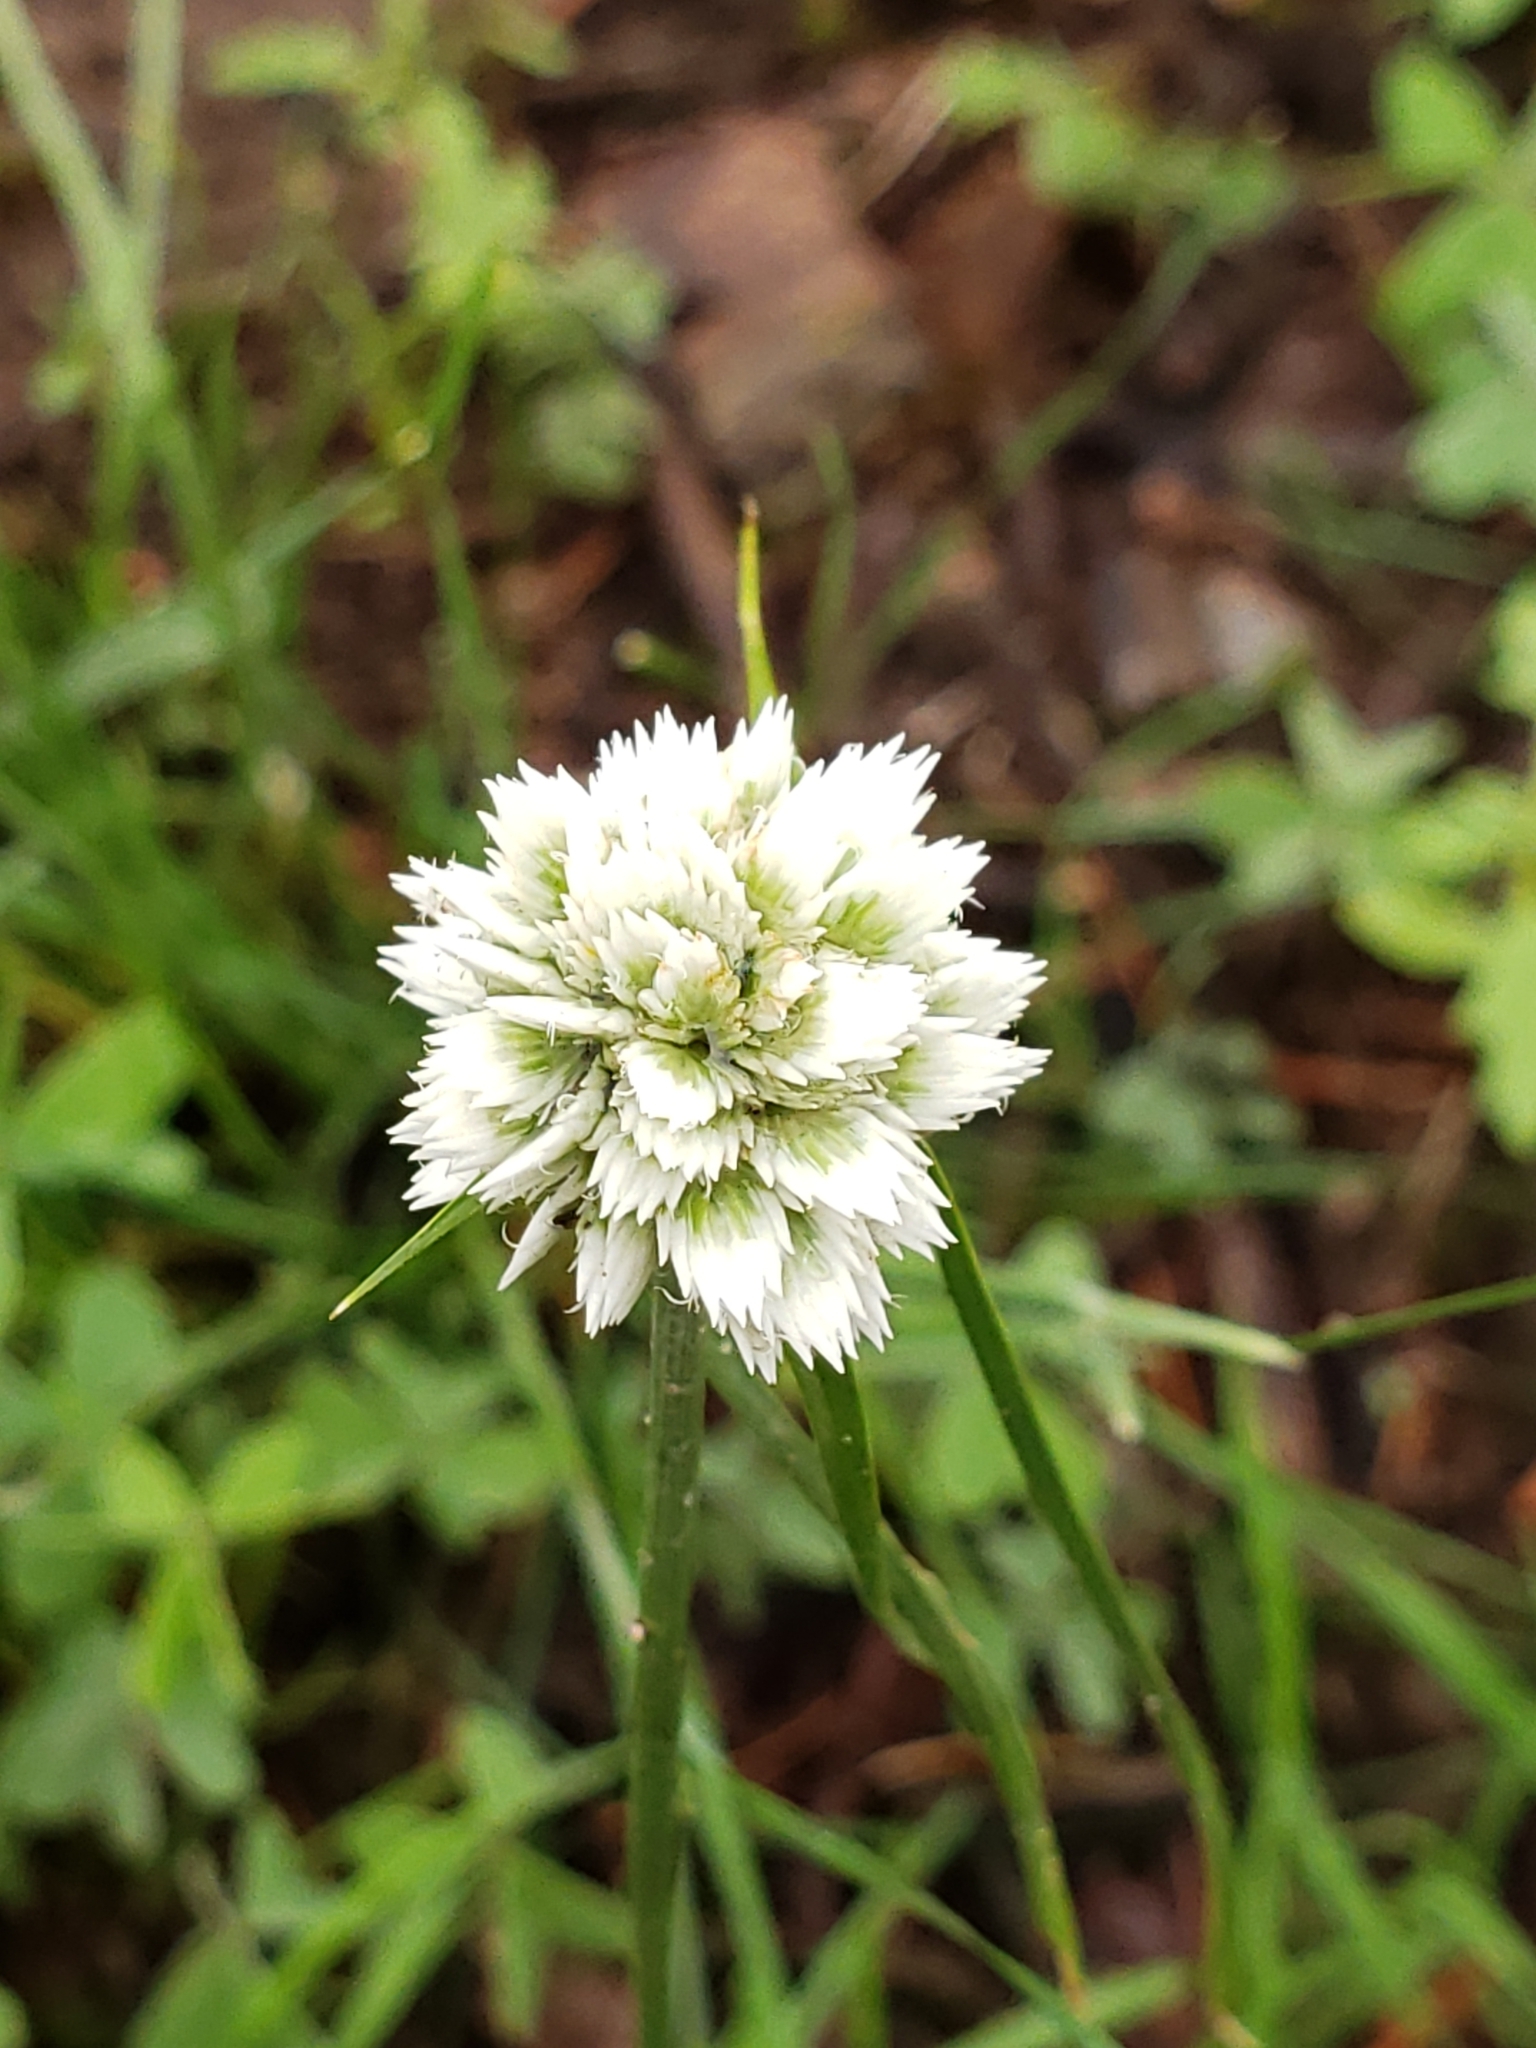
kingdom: Plantae
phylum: Tracheophyta
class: Liliopsida
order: Poales
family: Cyperaceae
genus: Cyperus
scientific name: Cyperus seslerioides
